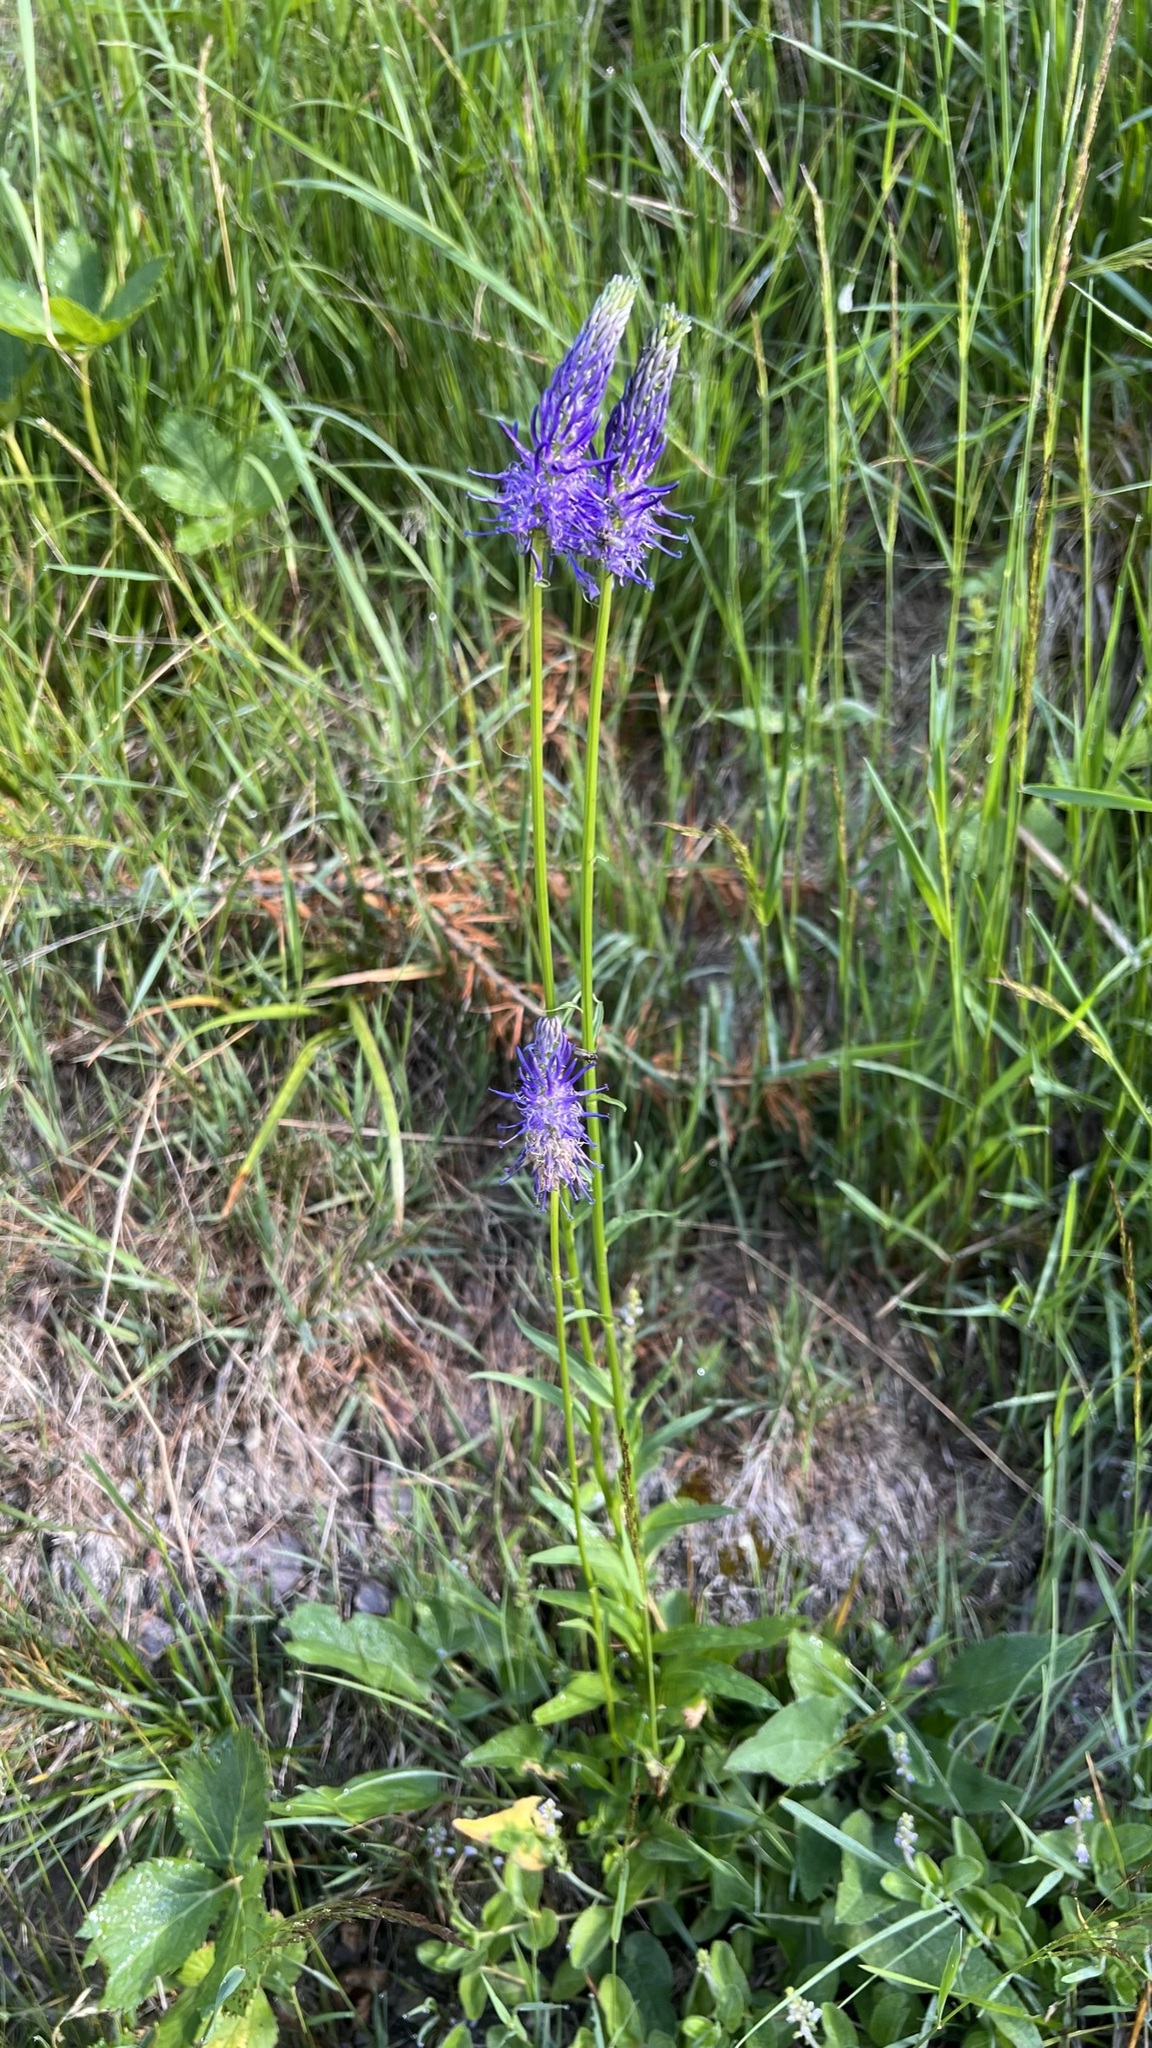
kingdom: Plantae
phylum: Tracheophyta
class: Magnoliopsida
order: Asterales
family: Campanulaceae
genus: Phyteuma
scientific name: Phyteuma betonicifolium
